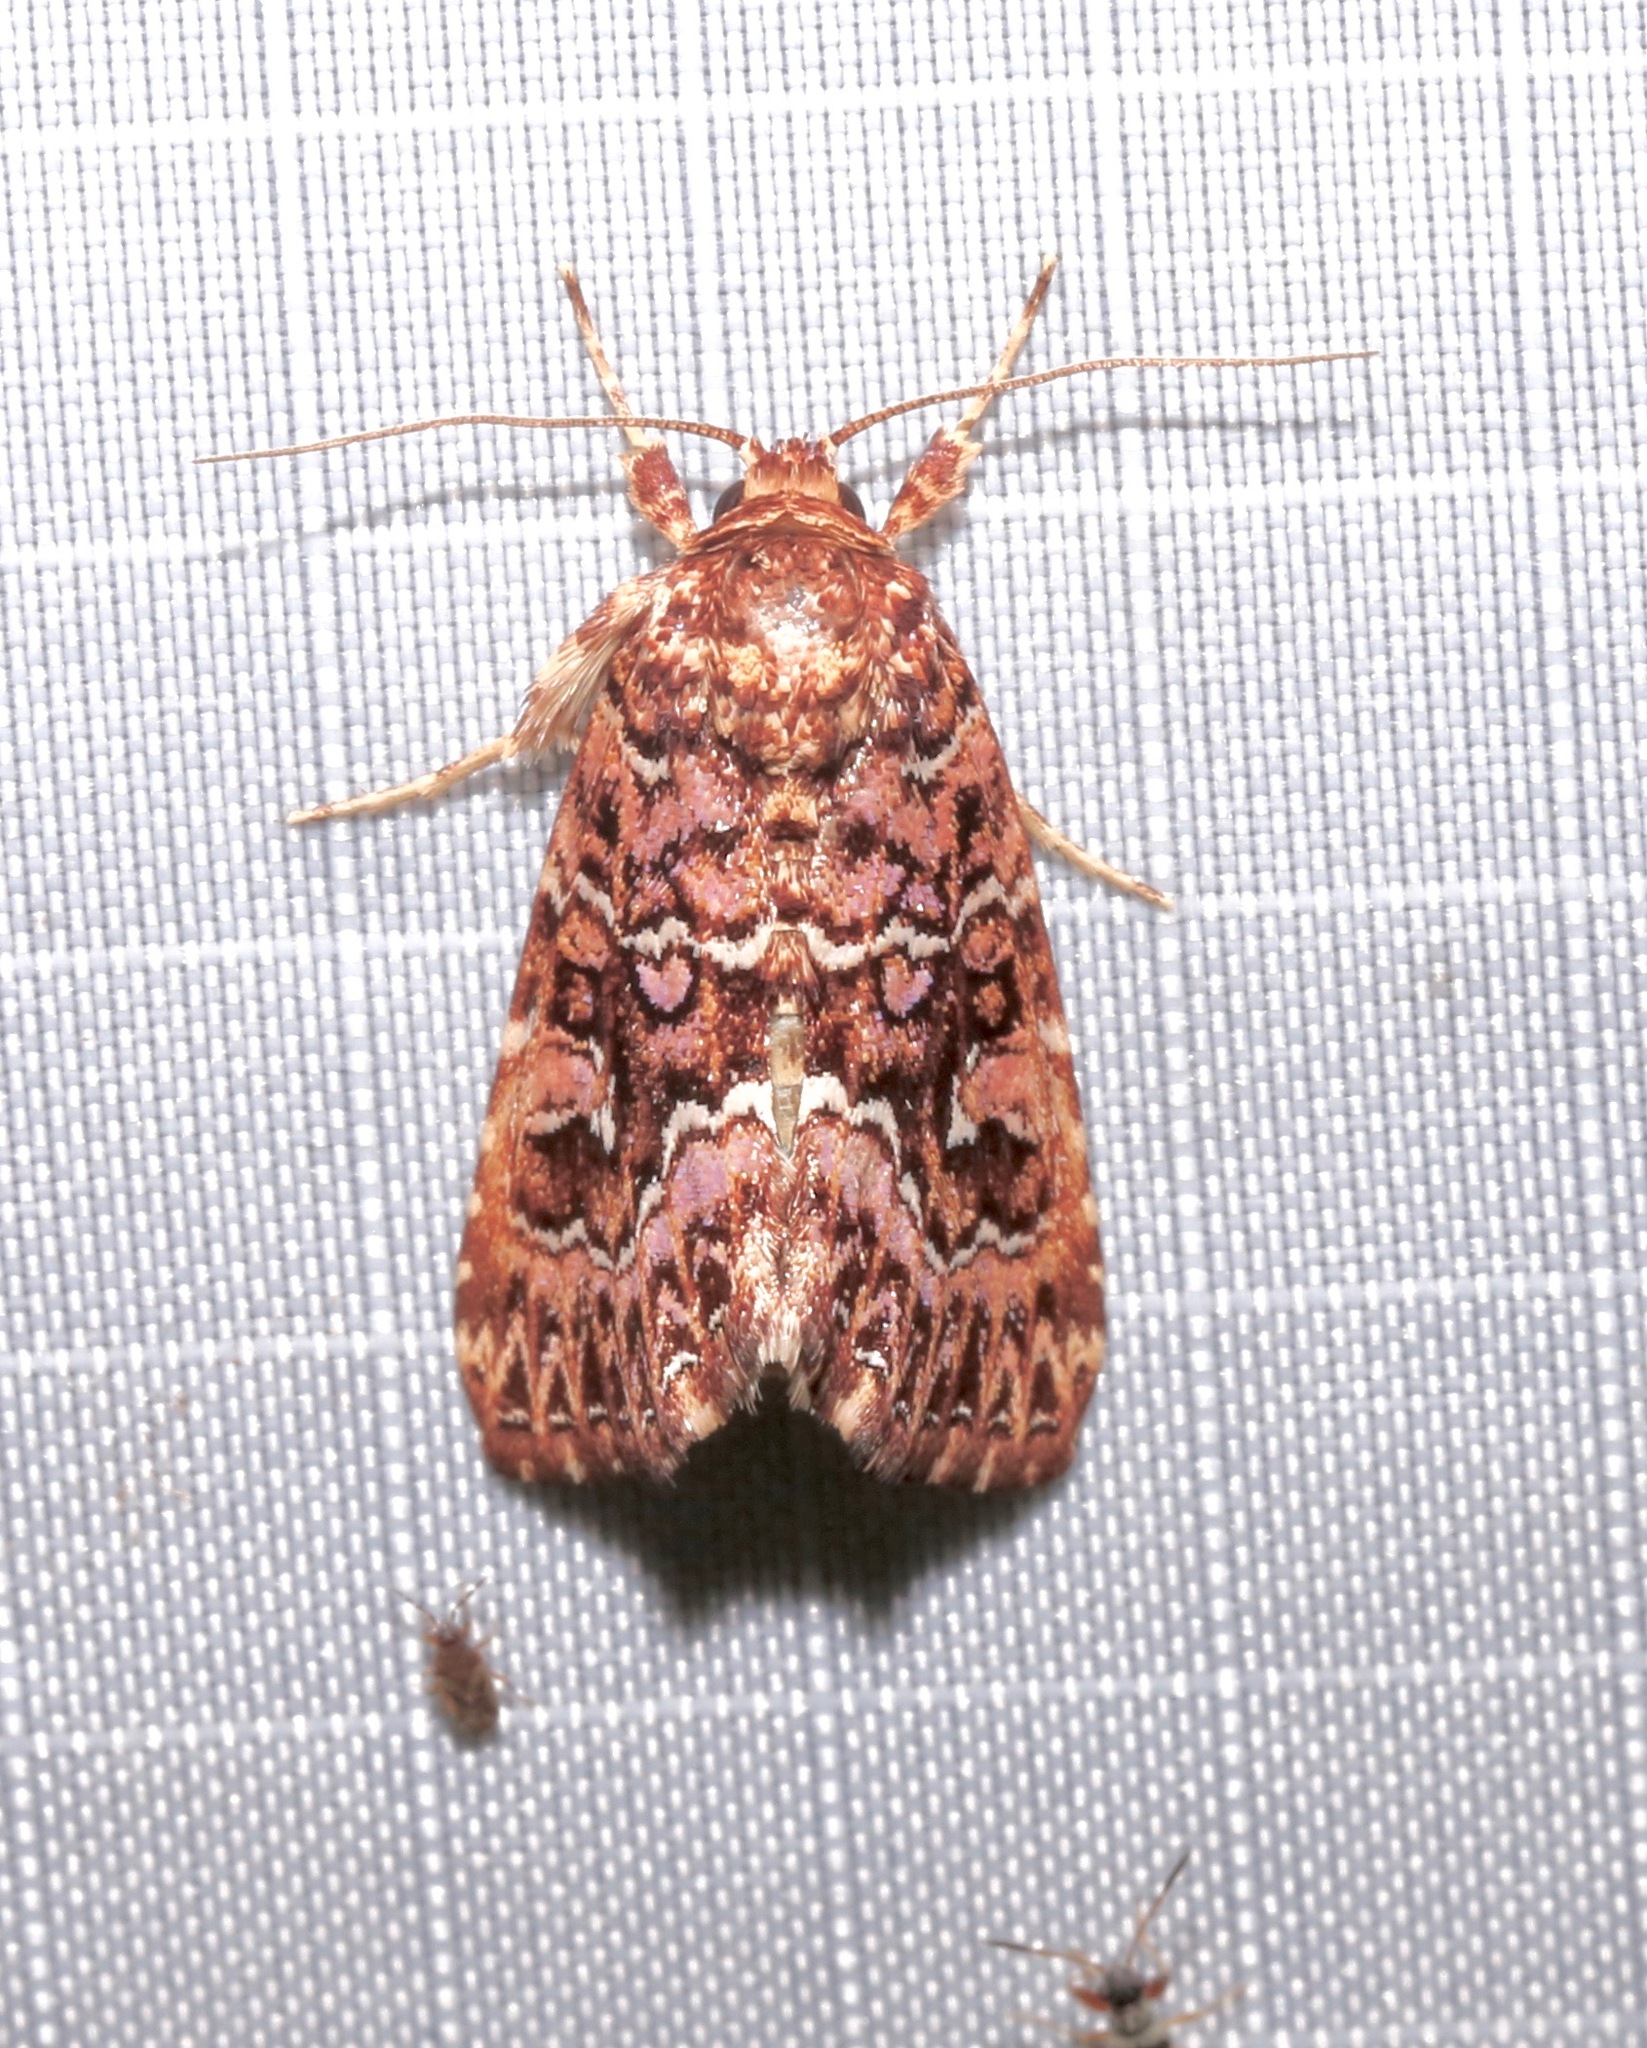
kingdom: Animalia
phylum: Arthropoda
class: Insecta
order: Lepidoptera
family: Noctuidae
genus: Callopistria
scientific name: Callopistria granitosa
